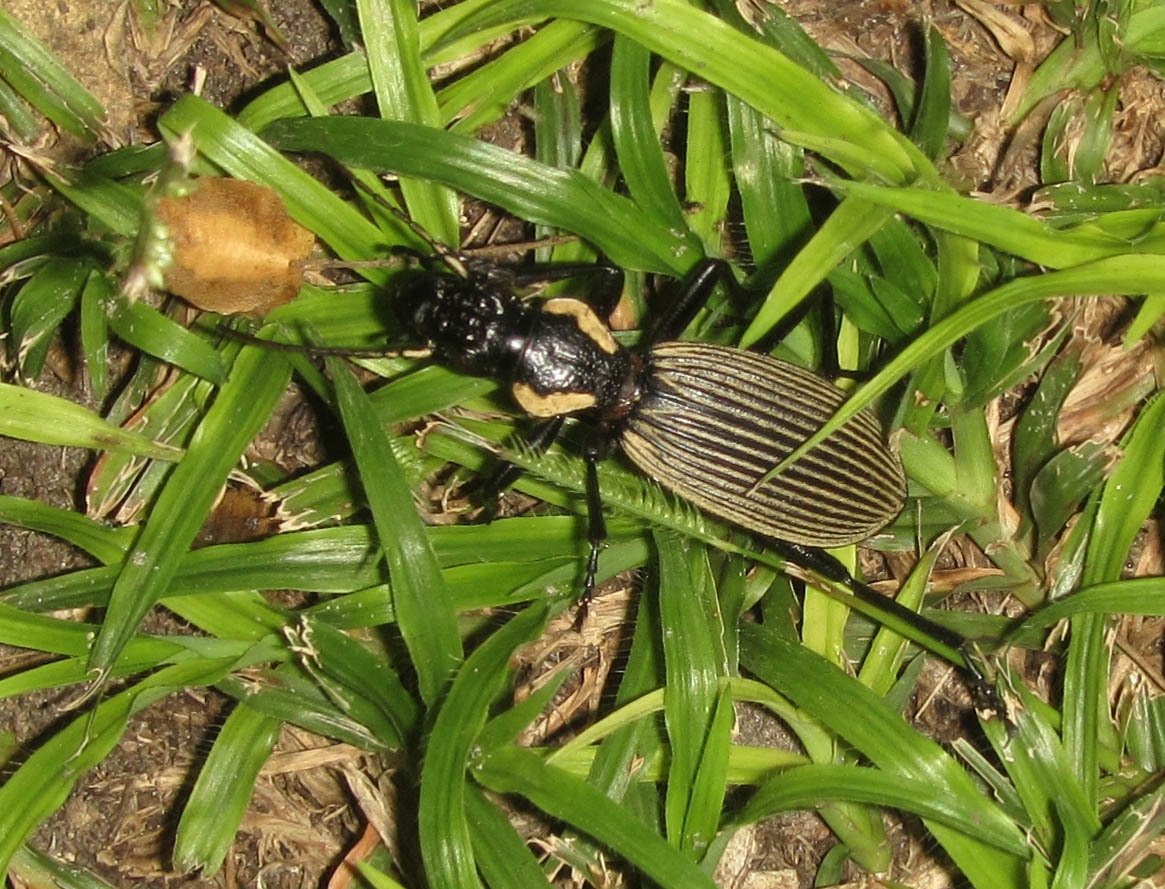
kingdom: Animalia
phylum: Arthropoda
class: Insecta
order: Coleoptera
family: Carabidae
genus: Anthia
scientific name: Anthia burchelli
